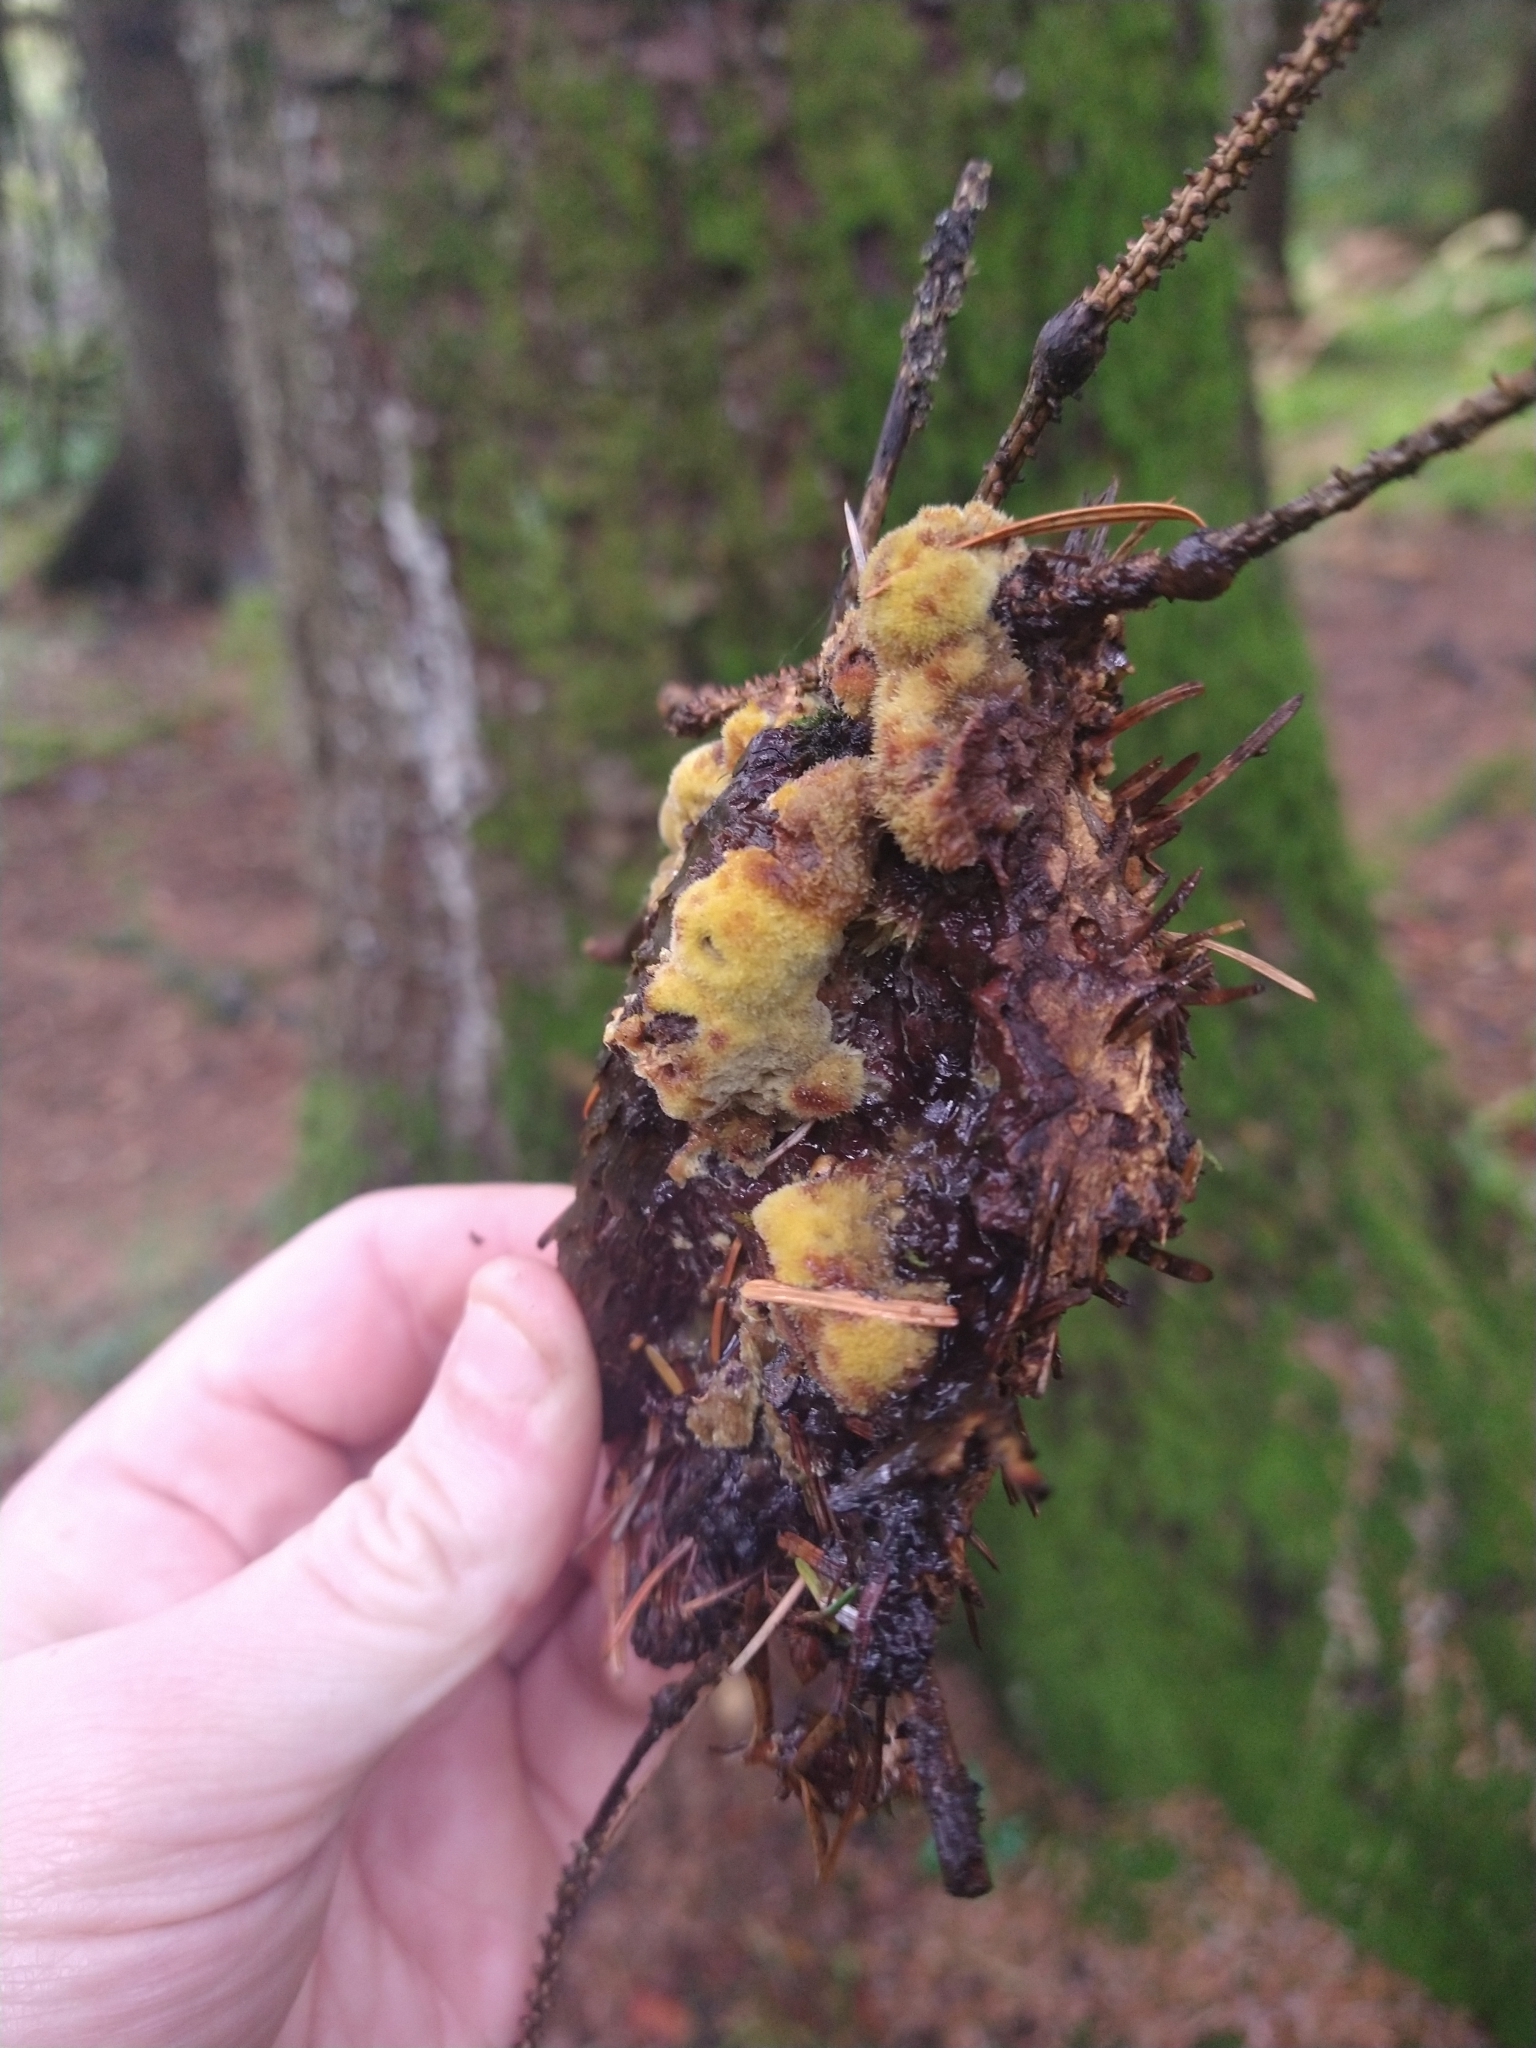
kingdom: Fungi
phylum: Basidiomycota
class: Agaricomycetes
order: Polyporales
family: Laetiporaceae
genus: Phaeolus
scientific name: Phaeolus schweinitzii
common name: Dyer's mazegill
